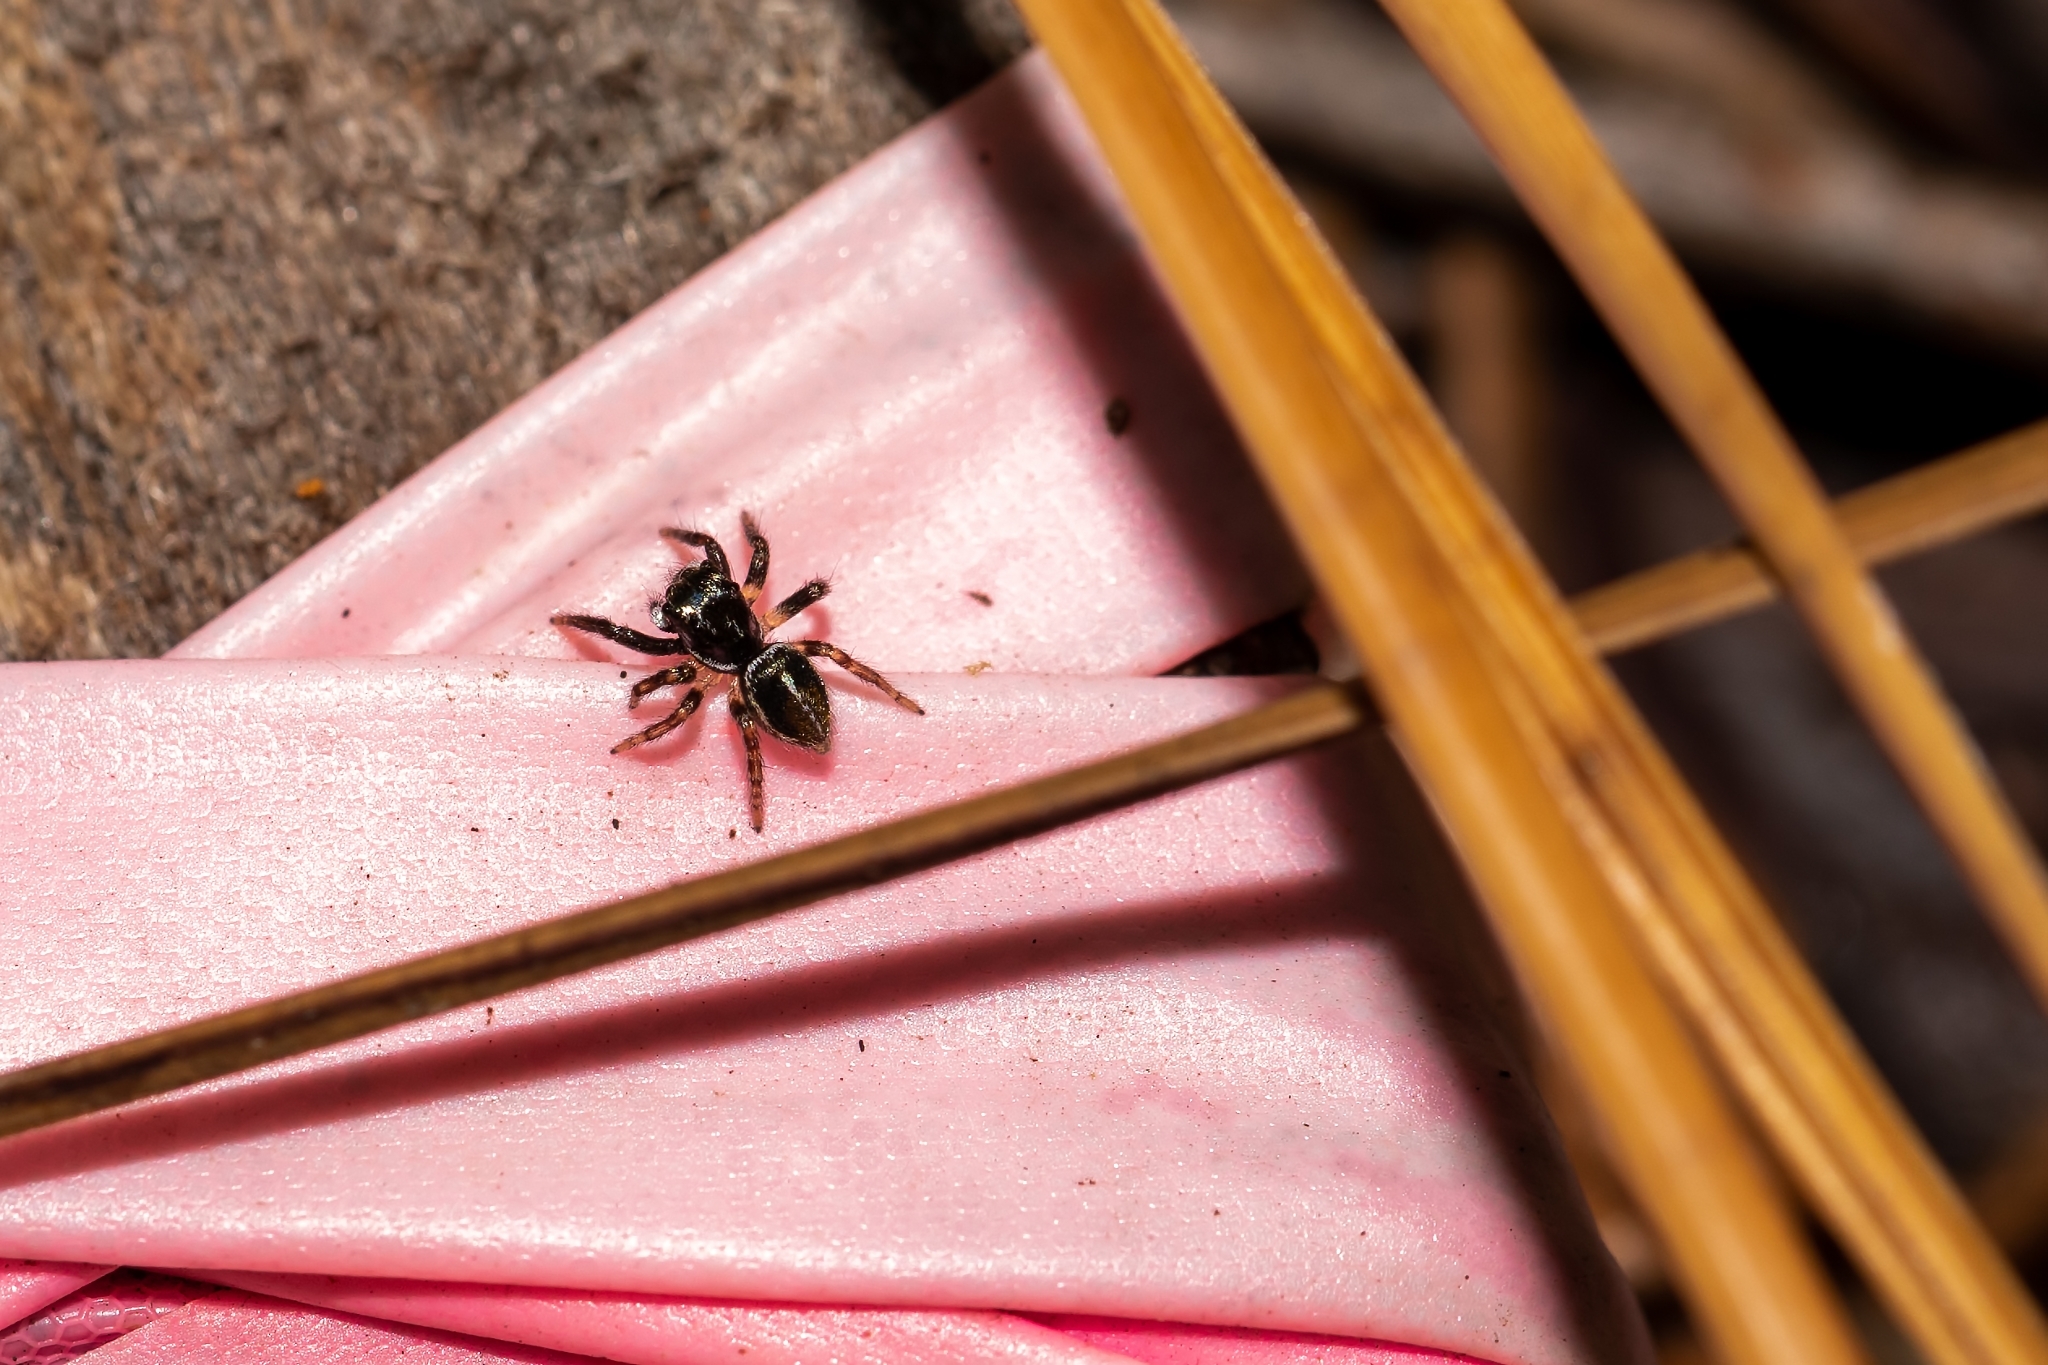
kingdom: Animalia
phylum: Arthropoda
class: Arachnida
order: Araneae
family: Salticidae
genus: Anasaitis
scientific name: Anasaitis canosa
